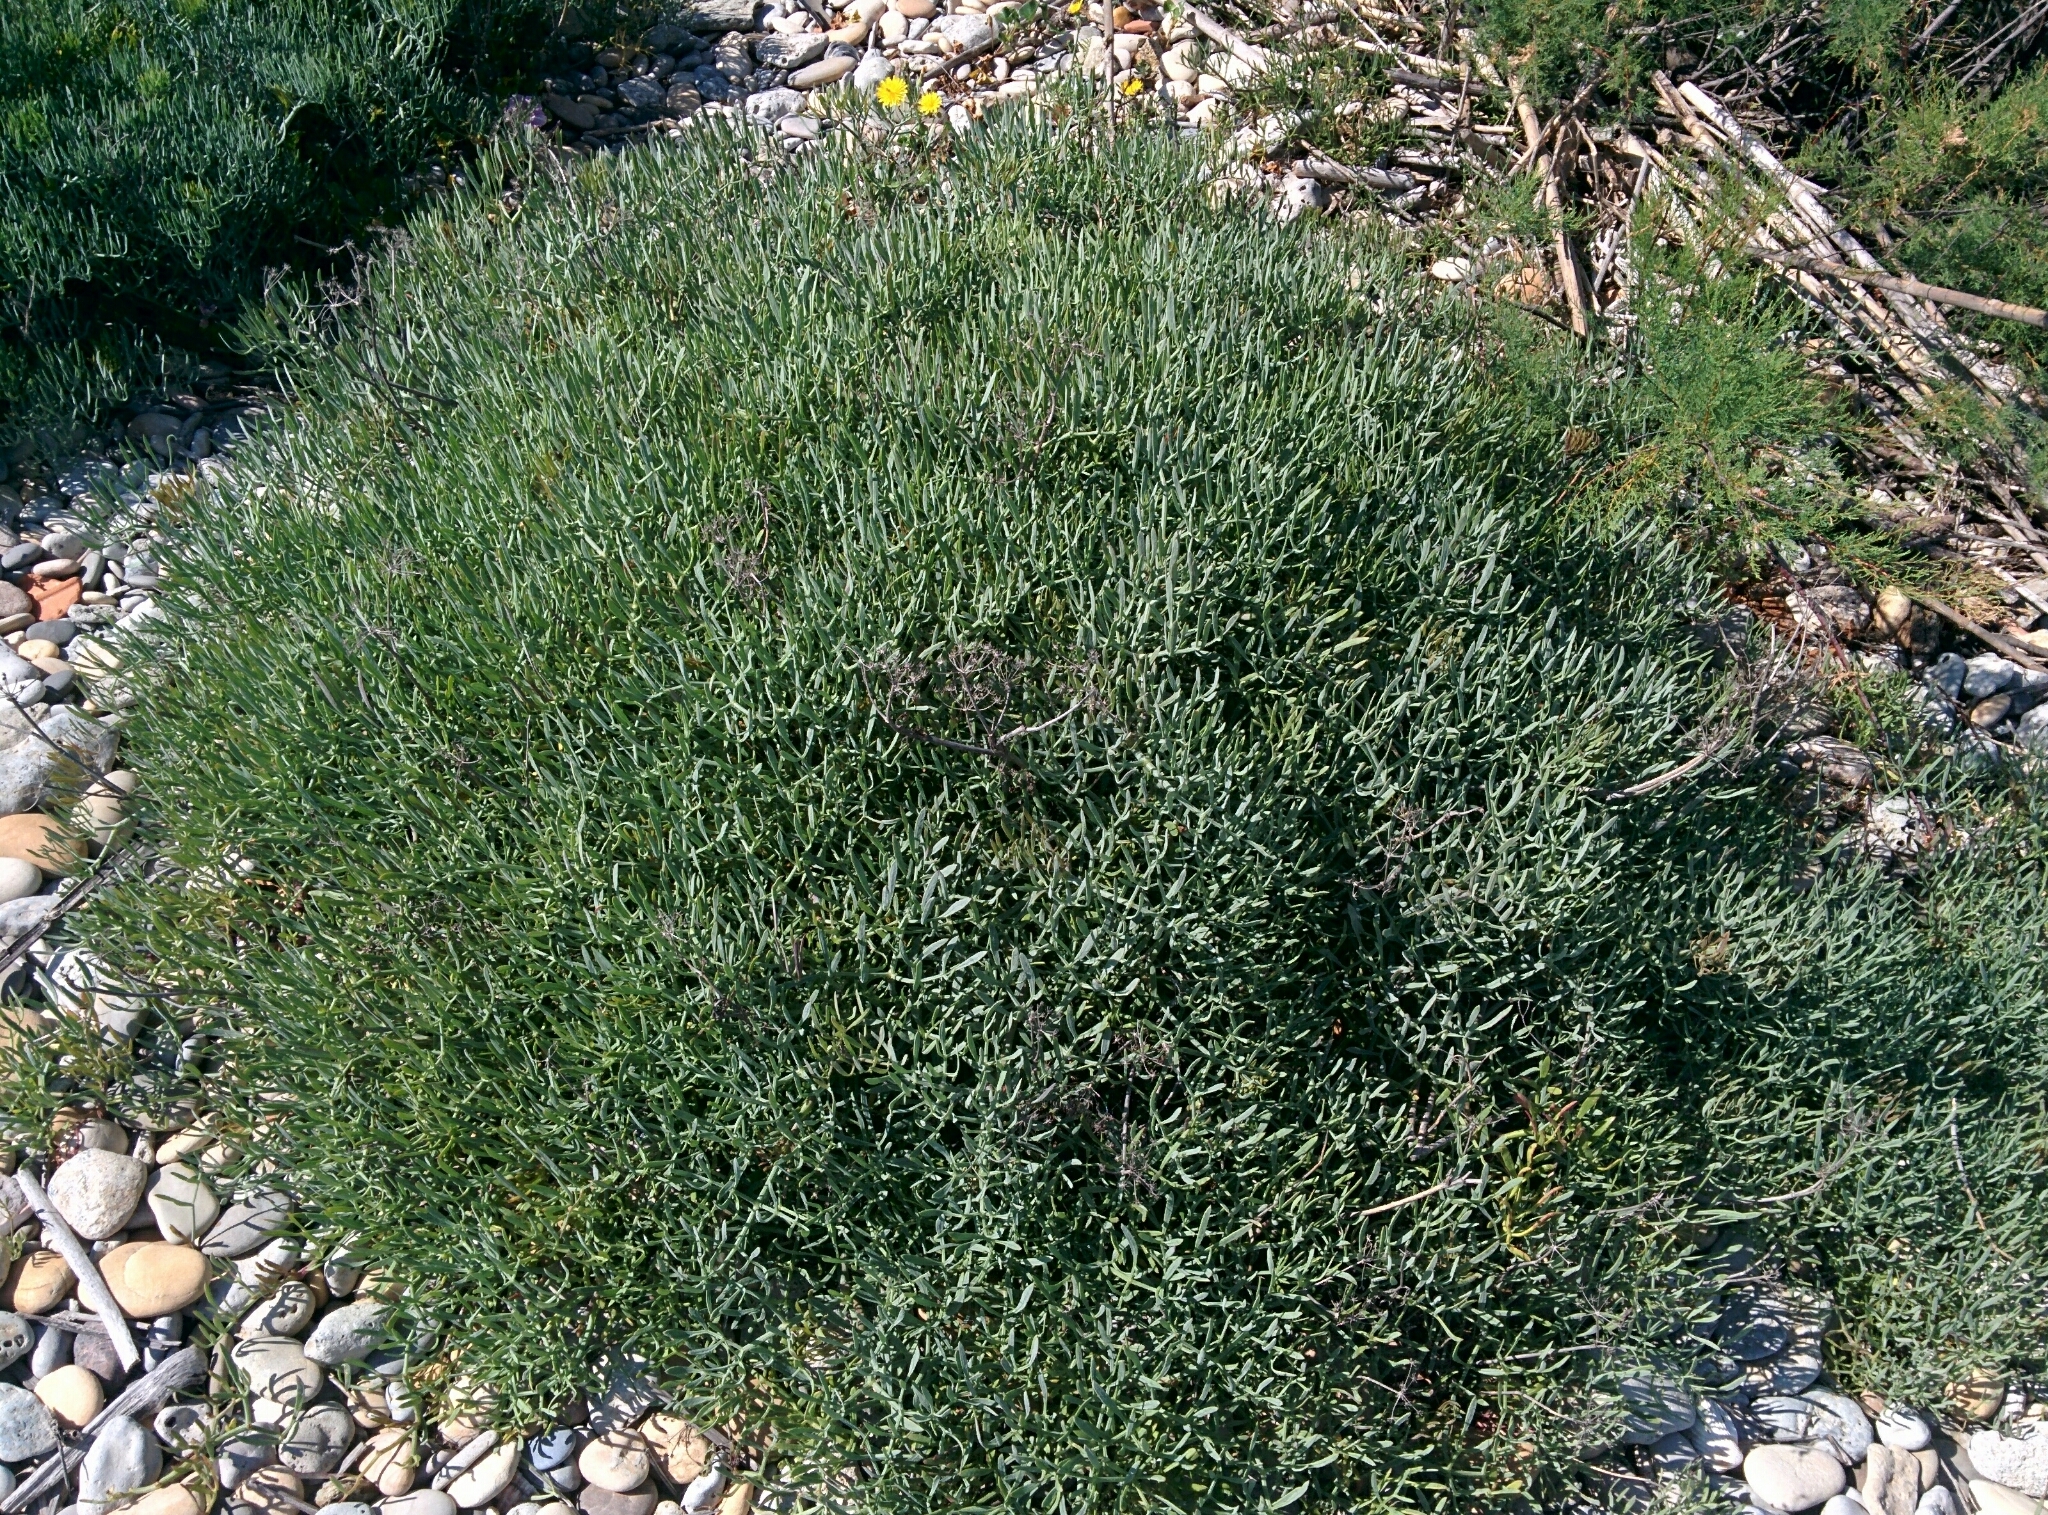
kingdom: Plantae
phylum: Tracheophyta
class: Magnoliopsida
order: Apiales
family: Apiaceae
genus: Crithmum
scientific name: Crithmum maritimum
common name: Rock samphire
